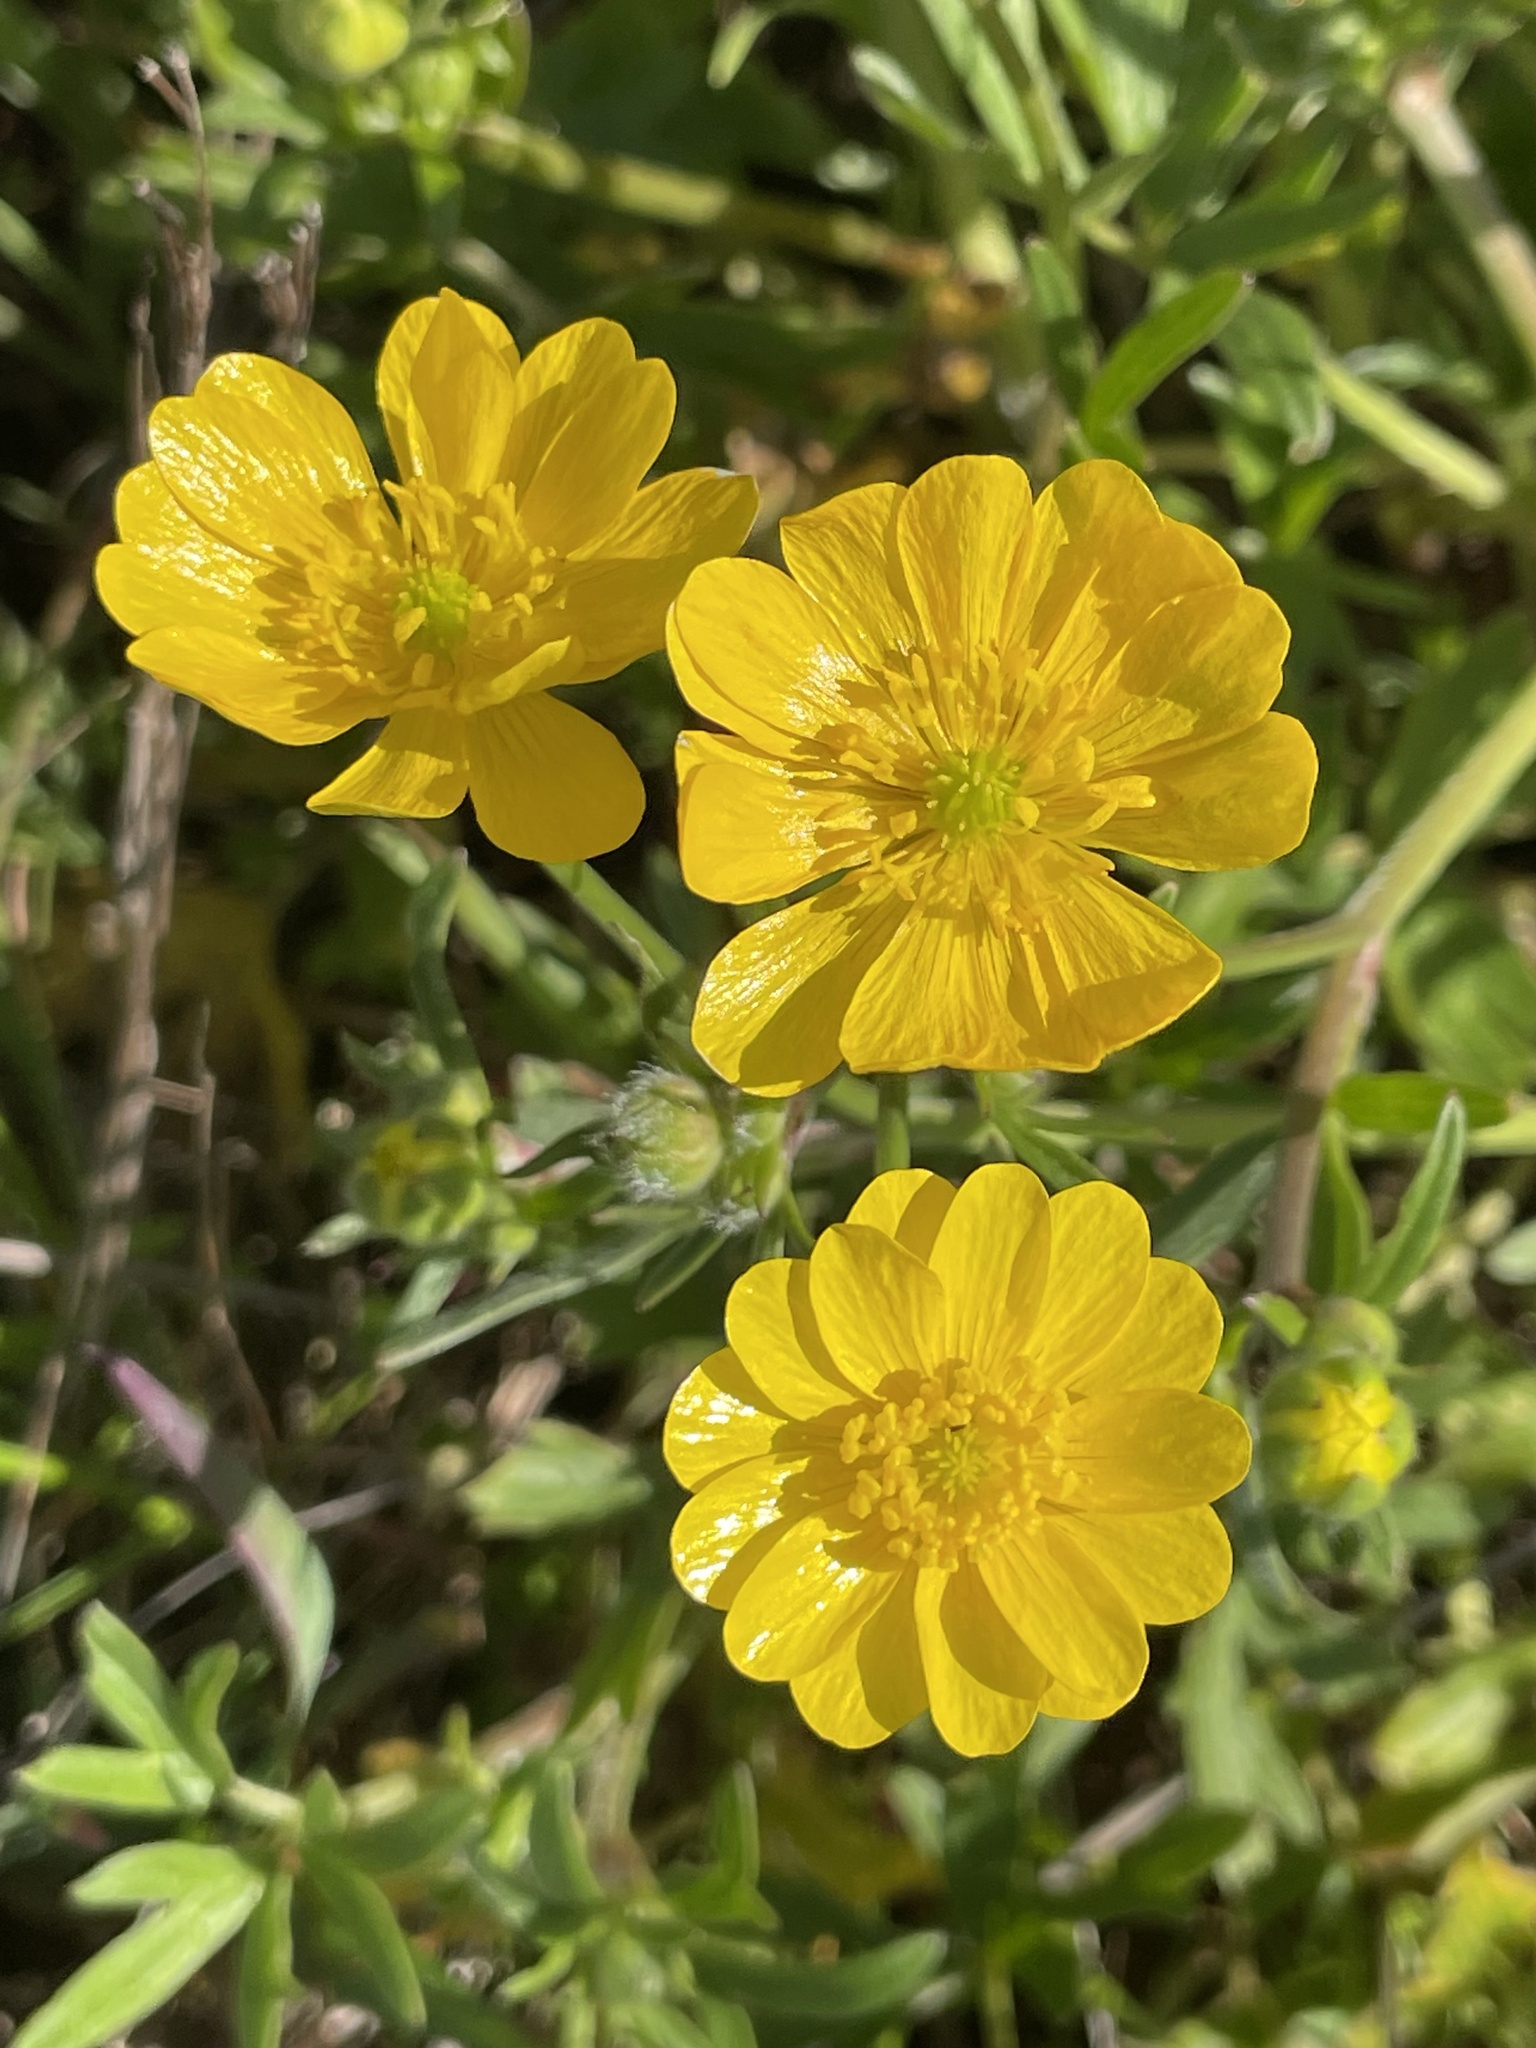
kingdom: Plantae
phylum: Tracheophyta
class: Magnoliopsida
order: Ranunculales
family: Ranunculaceae
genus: Ranunculus
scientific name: Ranunculus californicus
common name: California buttercup
